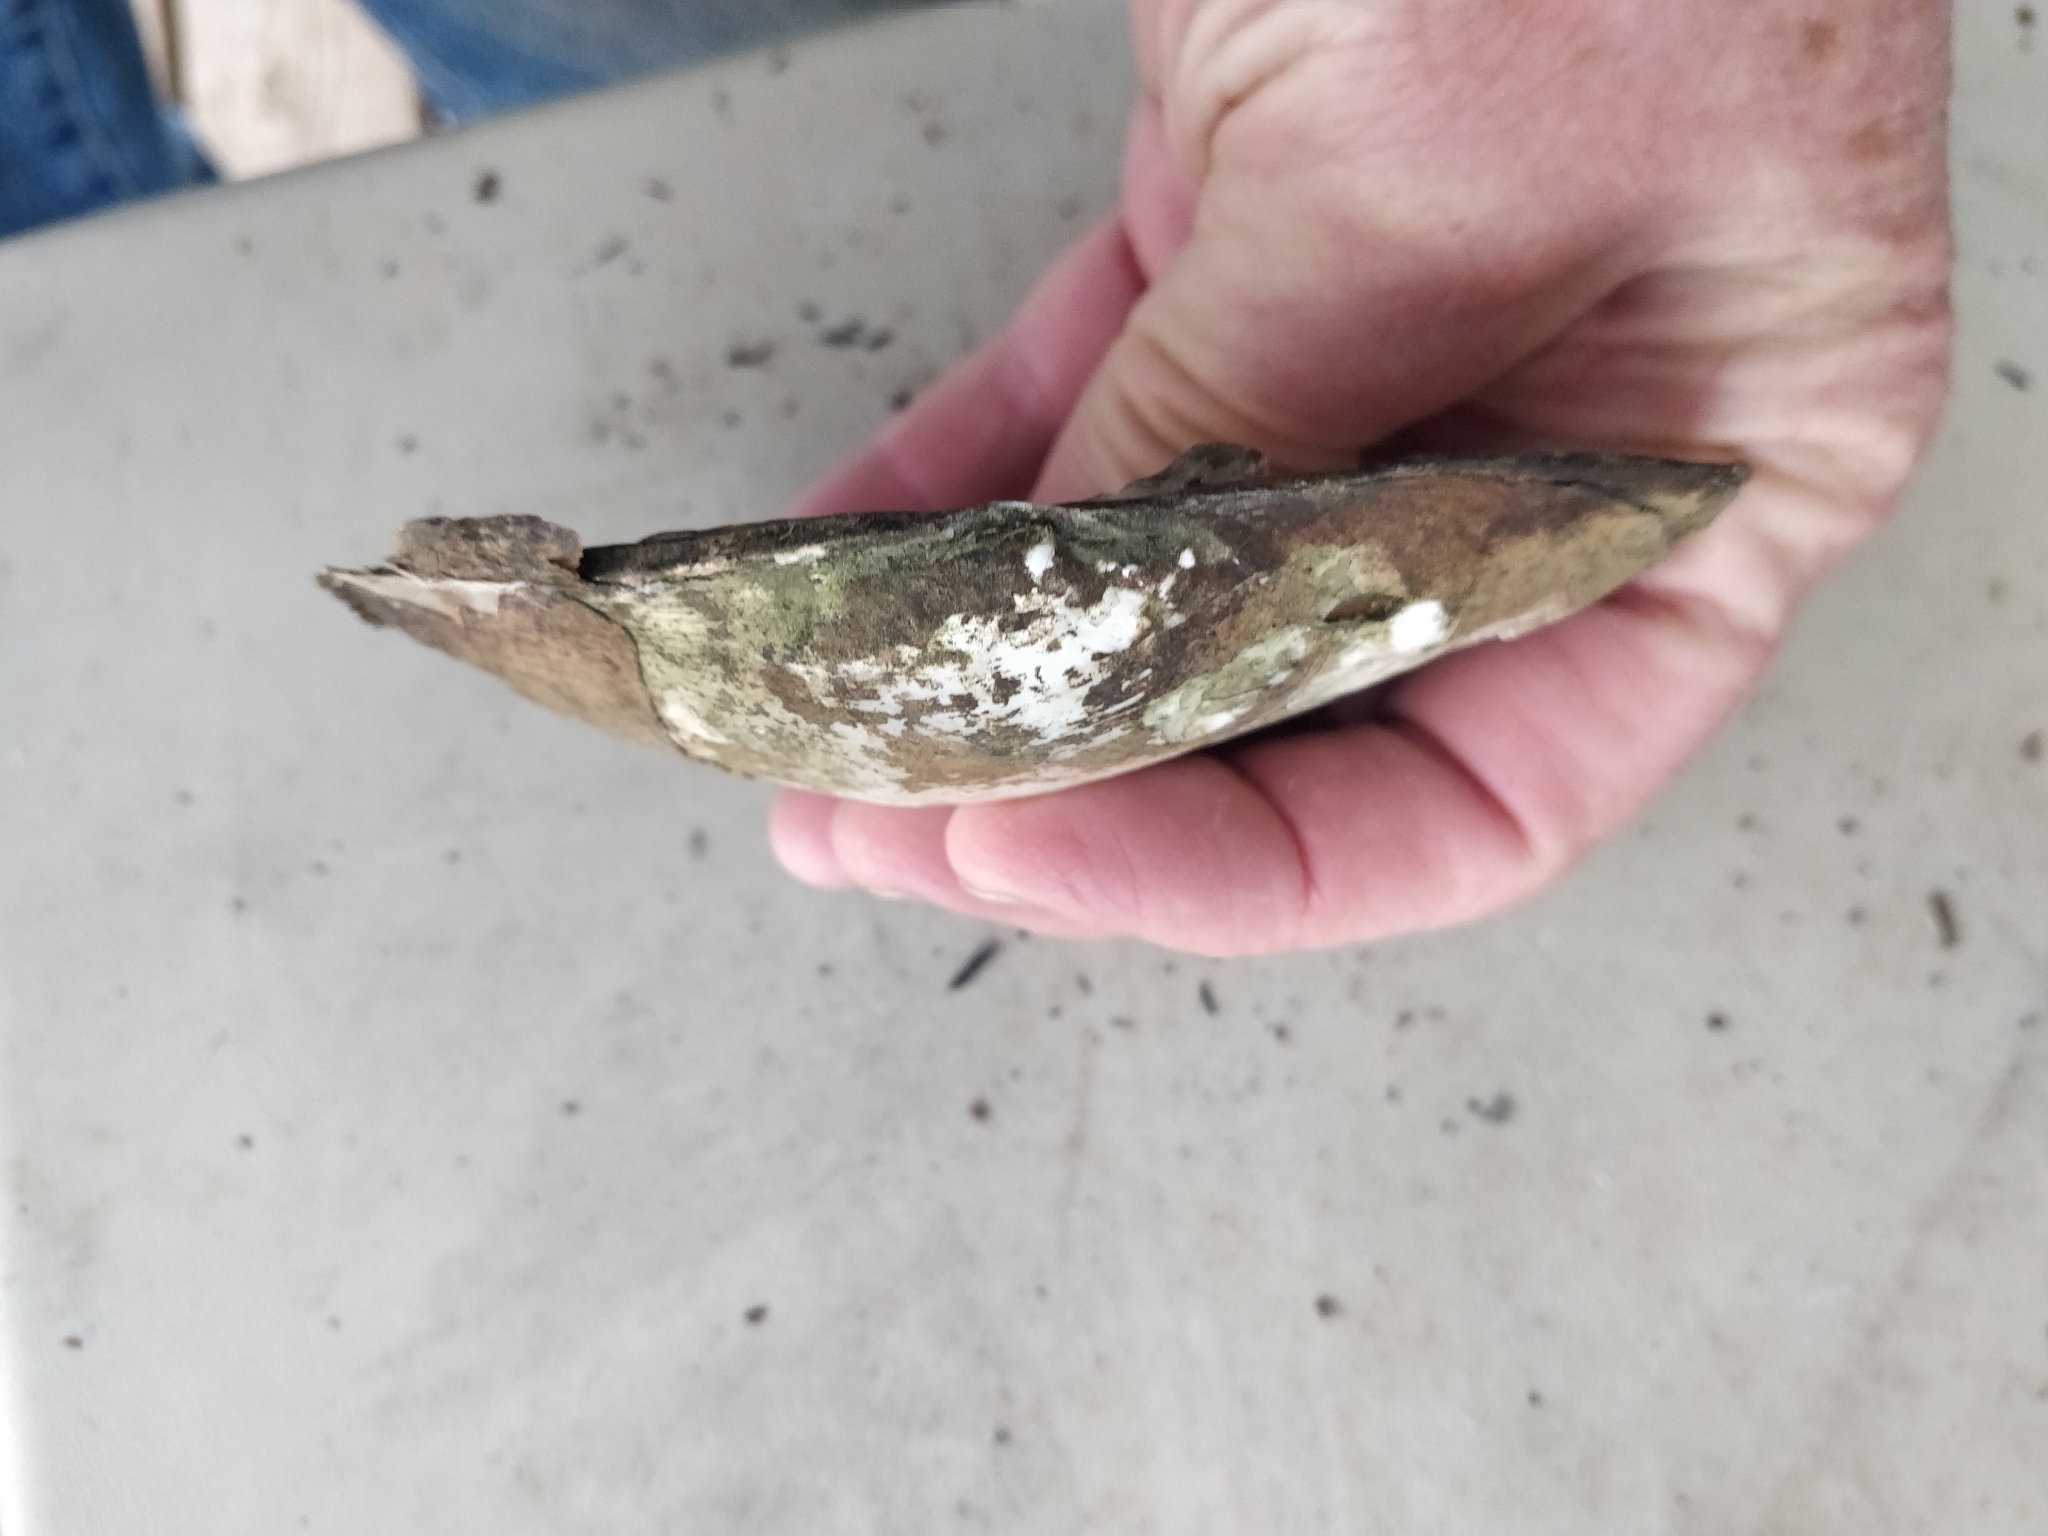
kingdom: Animalia
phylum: Mollusca
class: Bivalvia
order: Unionida
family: Unionidae
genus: Lasmigona
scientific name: Lasmigona complanata
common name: White heelsplitter
